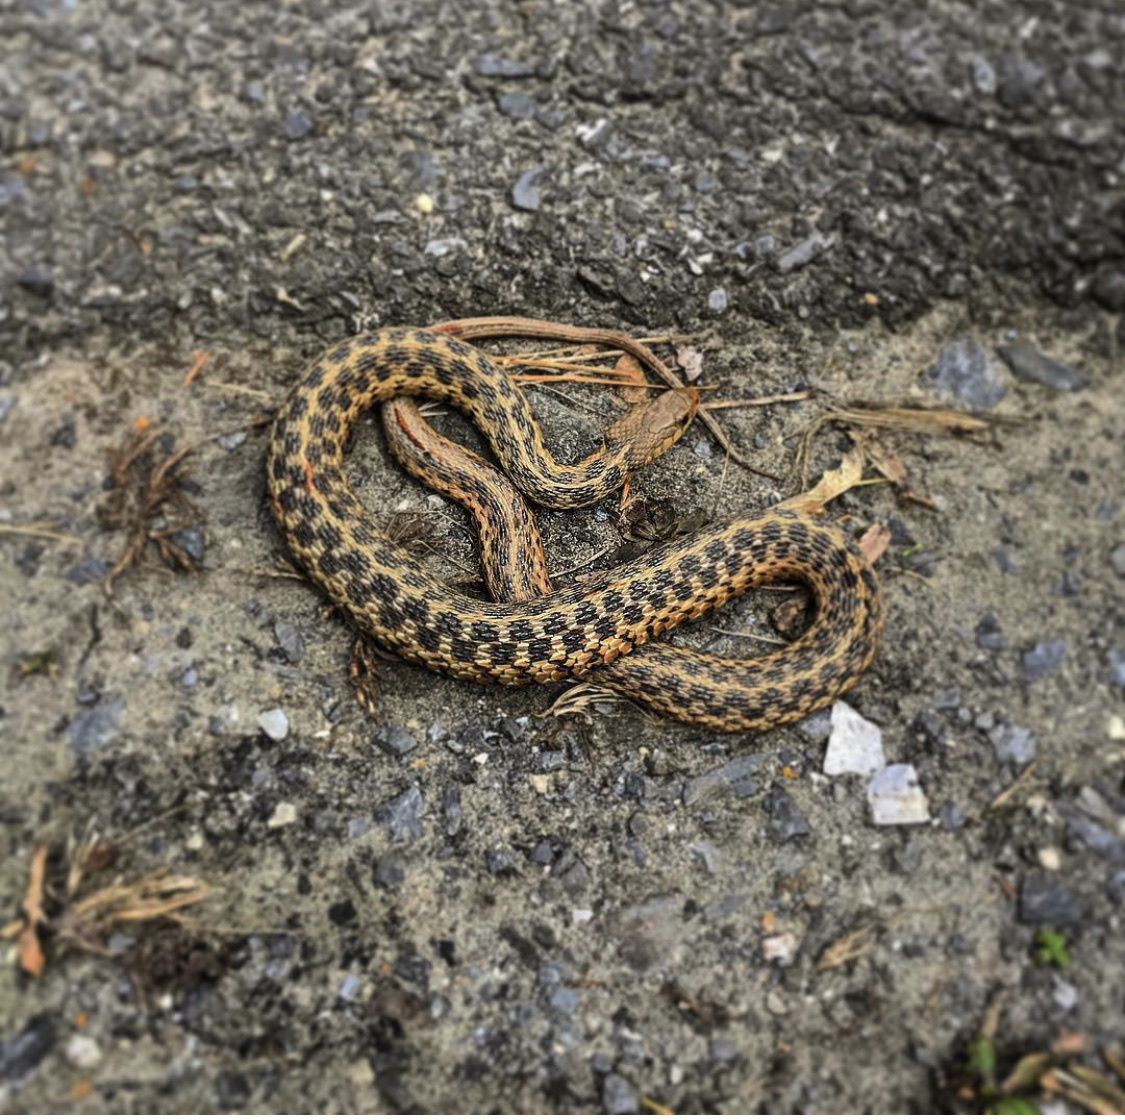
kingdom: Animalia
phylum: Chordata
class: Squamata
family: Colubridae
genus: Thamnophis
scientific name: Thamnophis sirtalis
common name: Common garter snake
